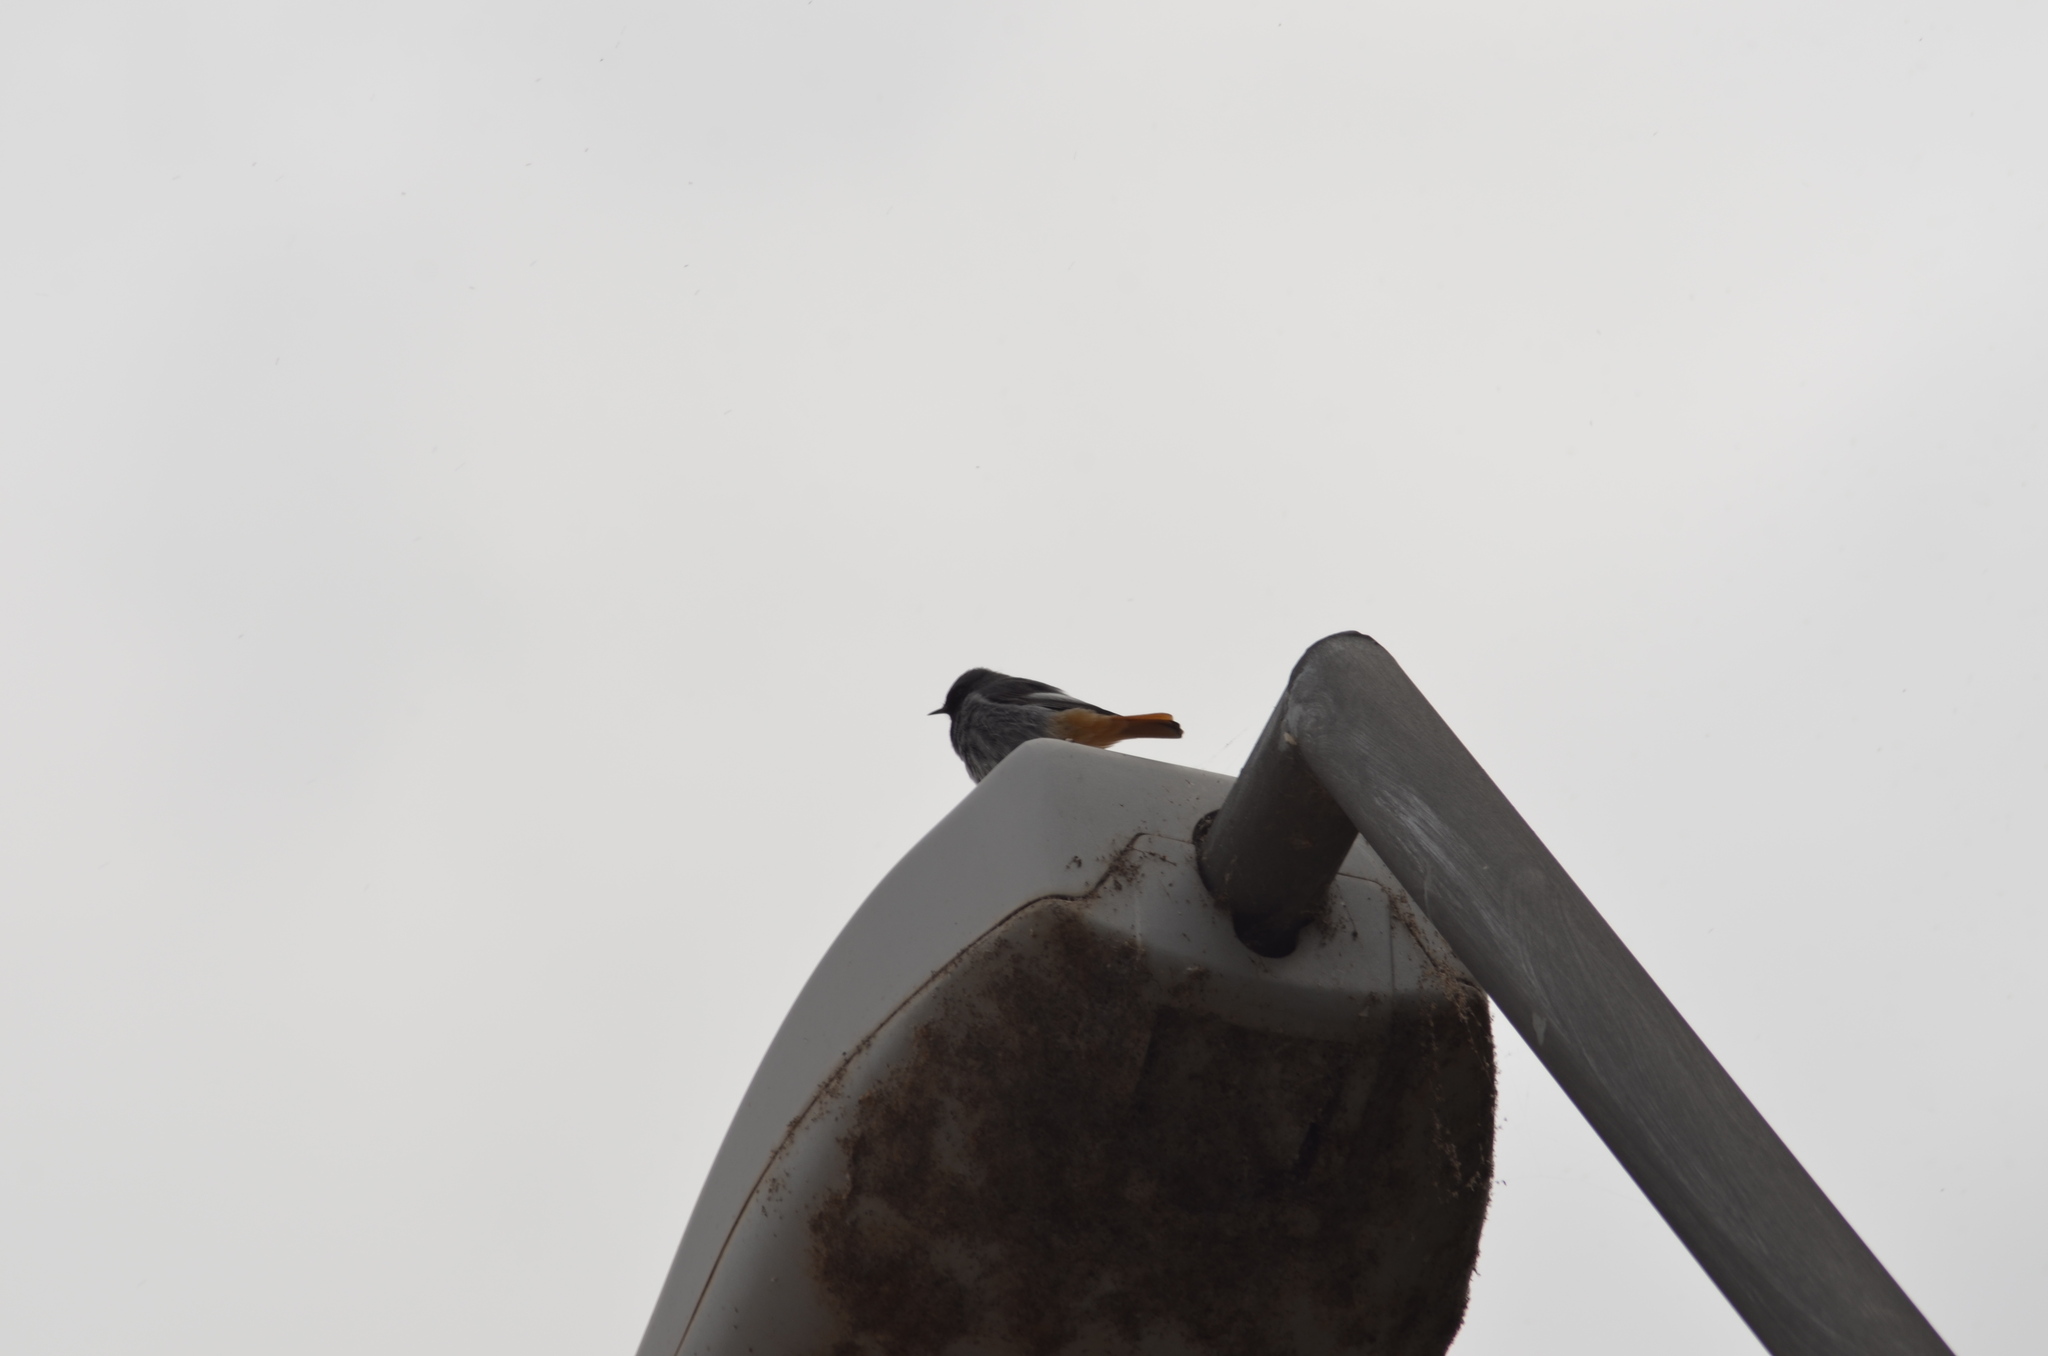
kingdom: Animalia
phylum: Chordata
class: Aves
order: Passeriformes
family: Muscicapidae
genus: Phoenicurus
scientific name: Phoenicurus ochruros
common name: Black redstart
